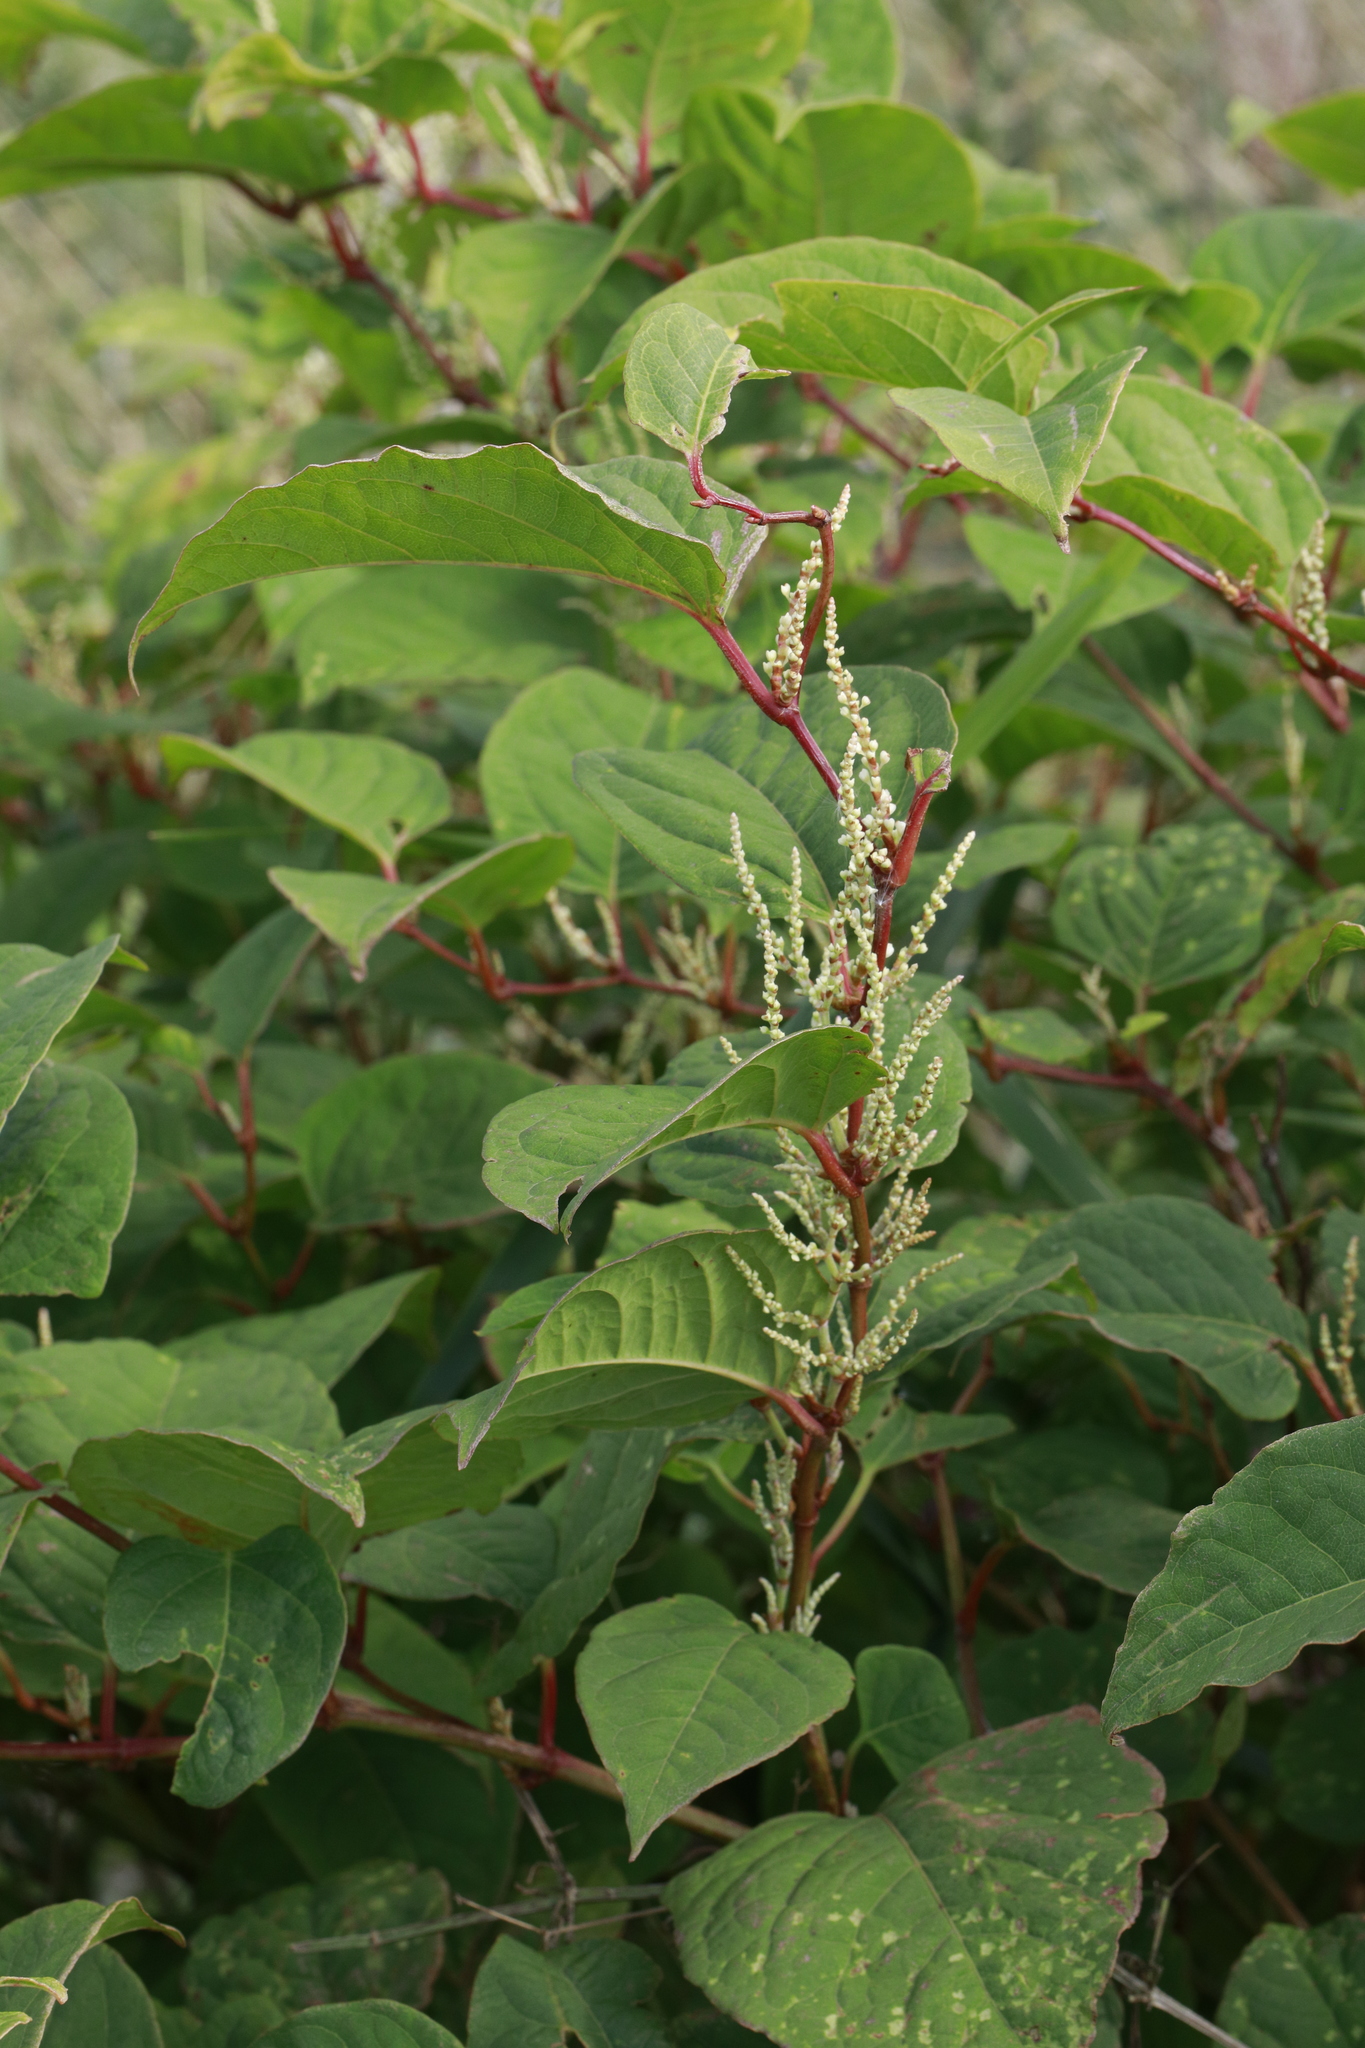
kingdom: Plantae
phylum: Tracheophyta
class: Magnoliopsida
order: Caryophyllales
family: Polygonaceae
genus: Reynoutria
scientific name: Reynoutria japonica
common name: Japanese knotweed
